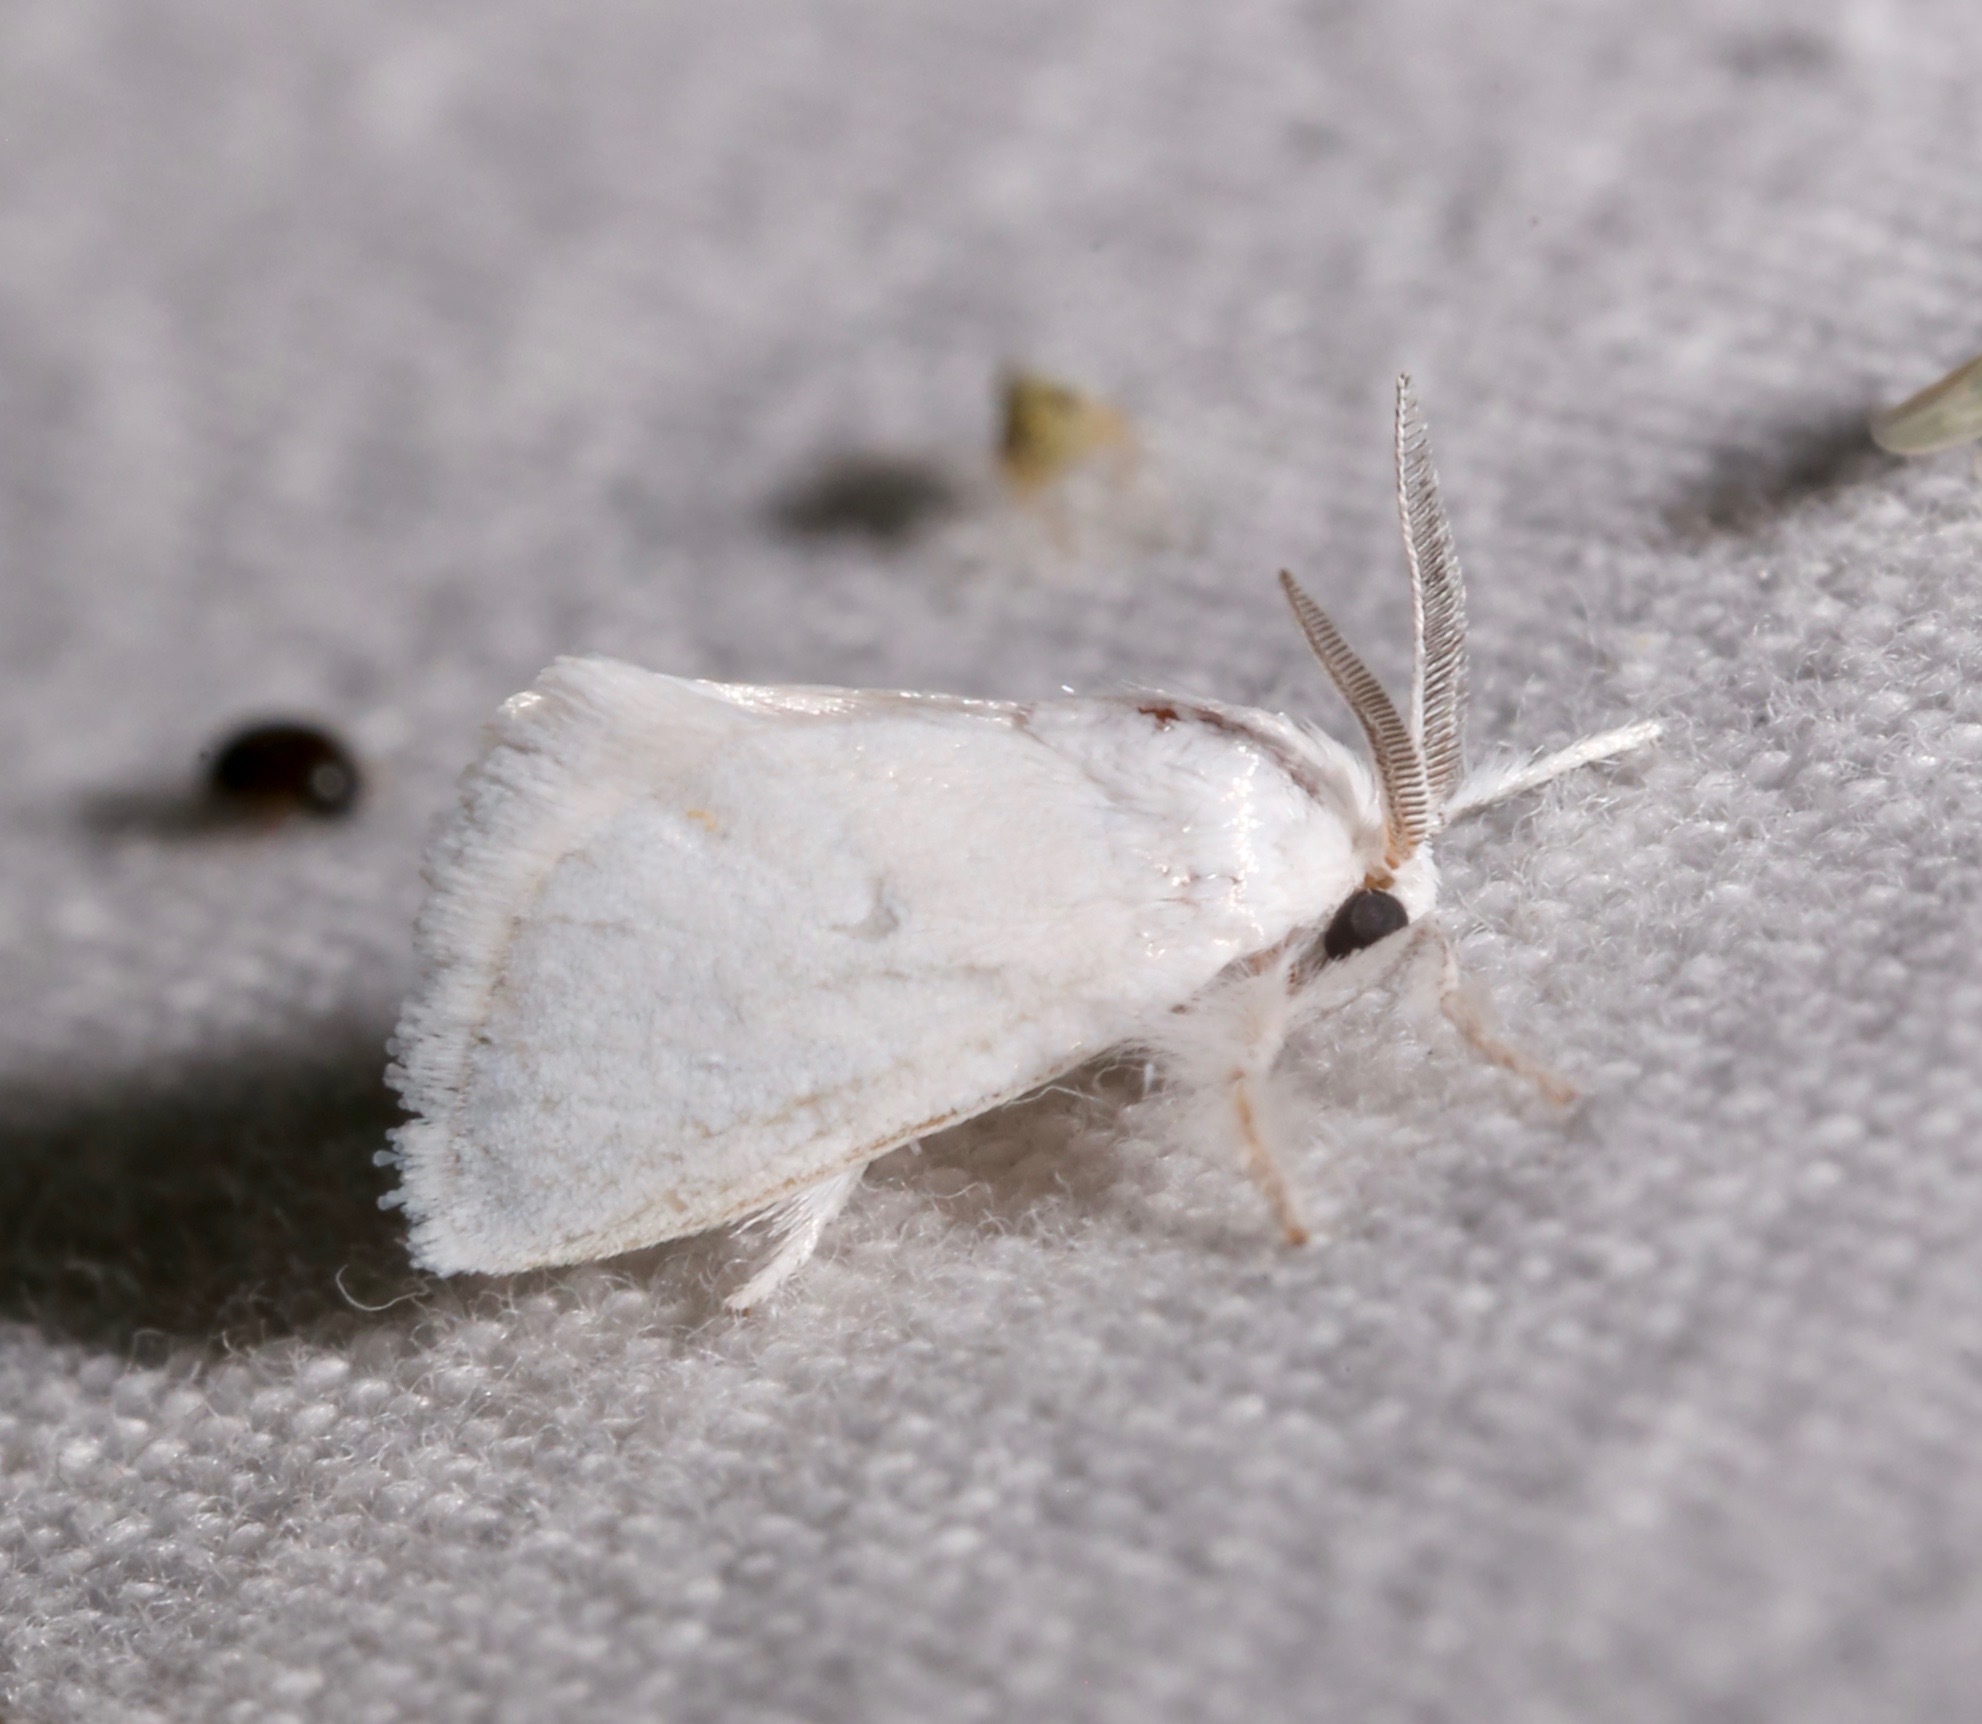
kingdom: Animalia
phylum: Arthropoda
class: Insecta
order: Lepidoptera
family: Limacodidae
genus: Alarodia
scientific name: Alarodia slossoniae
